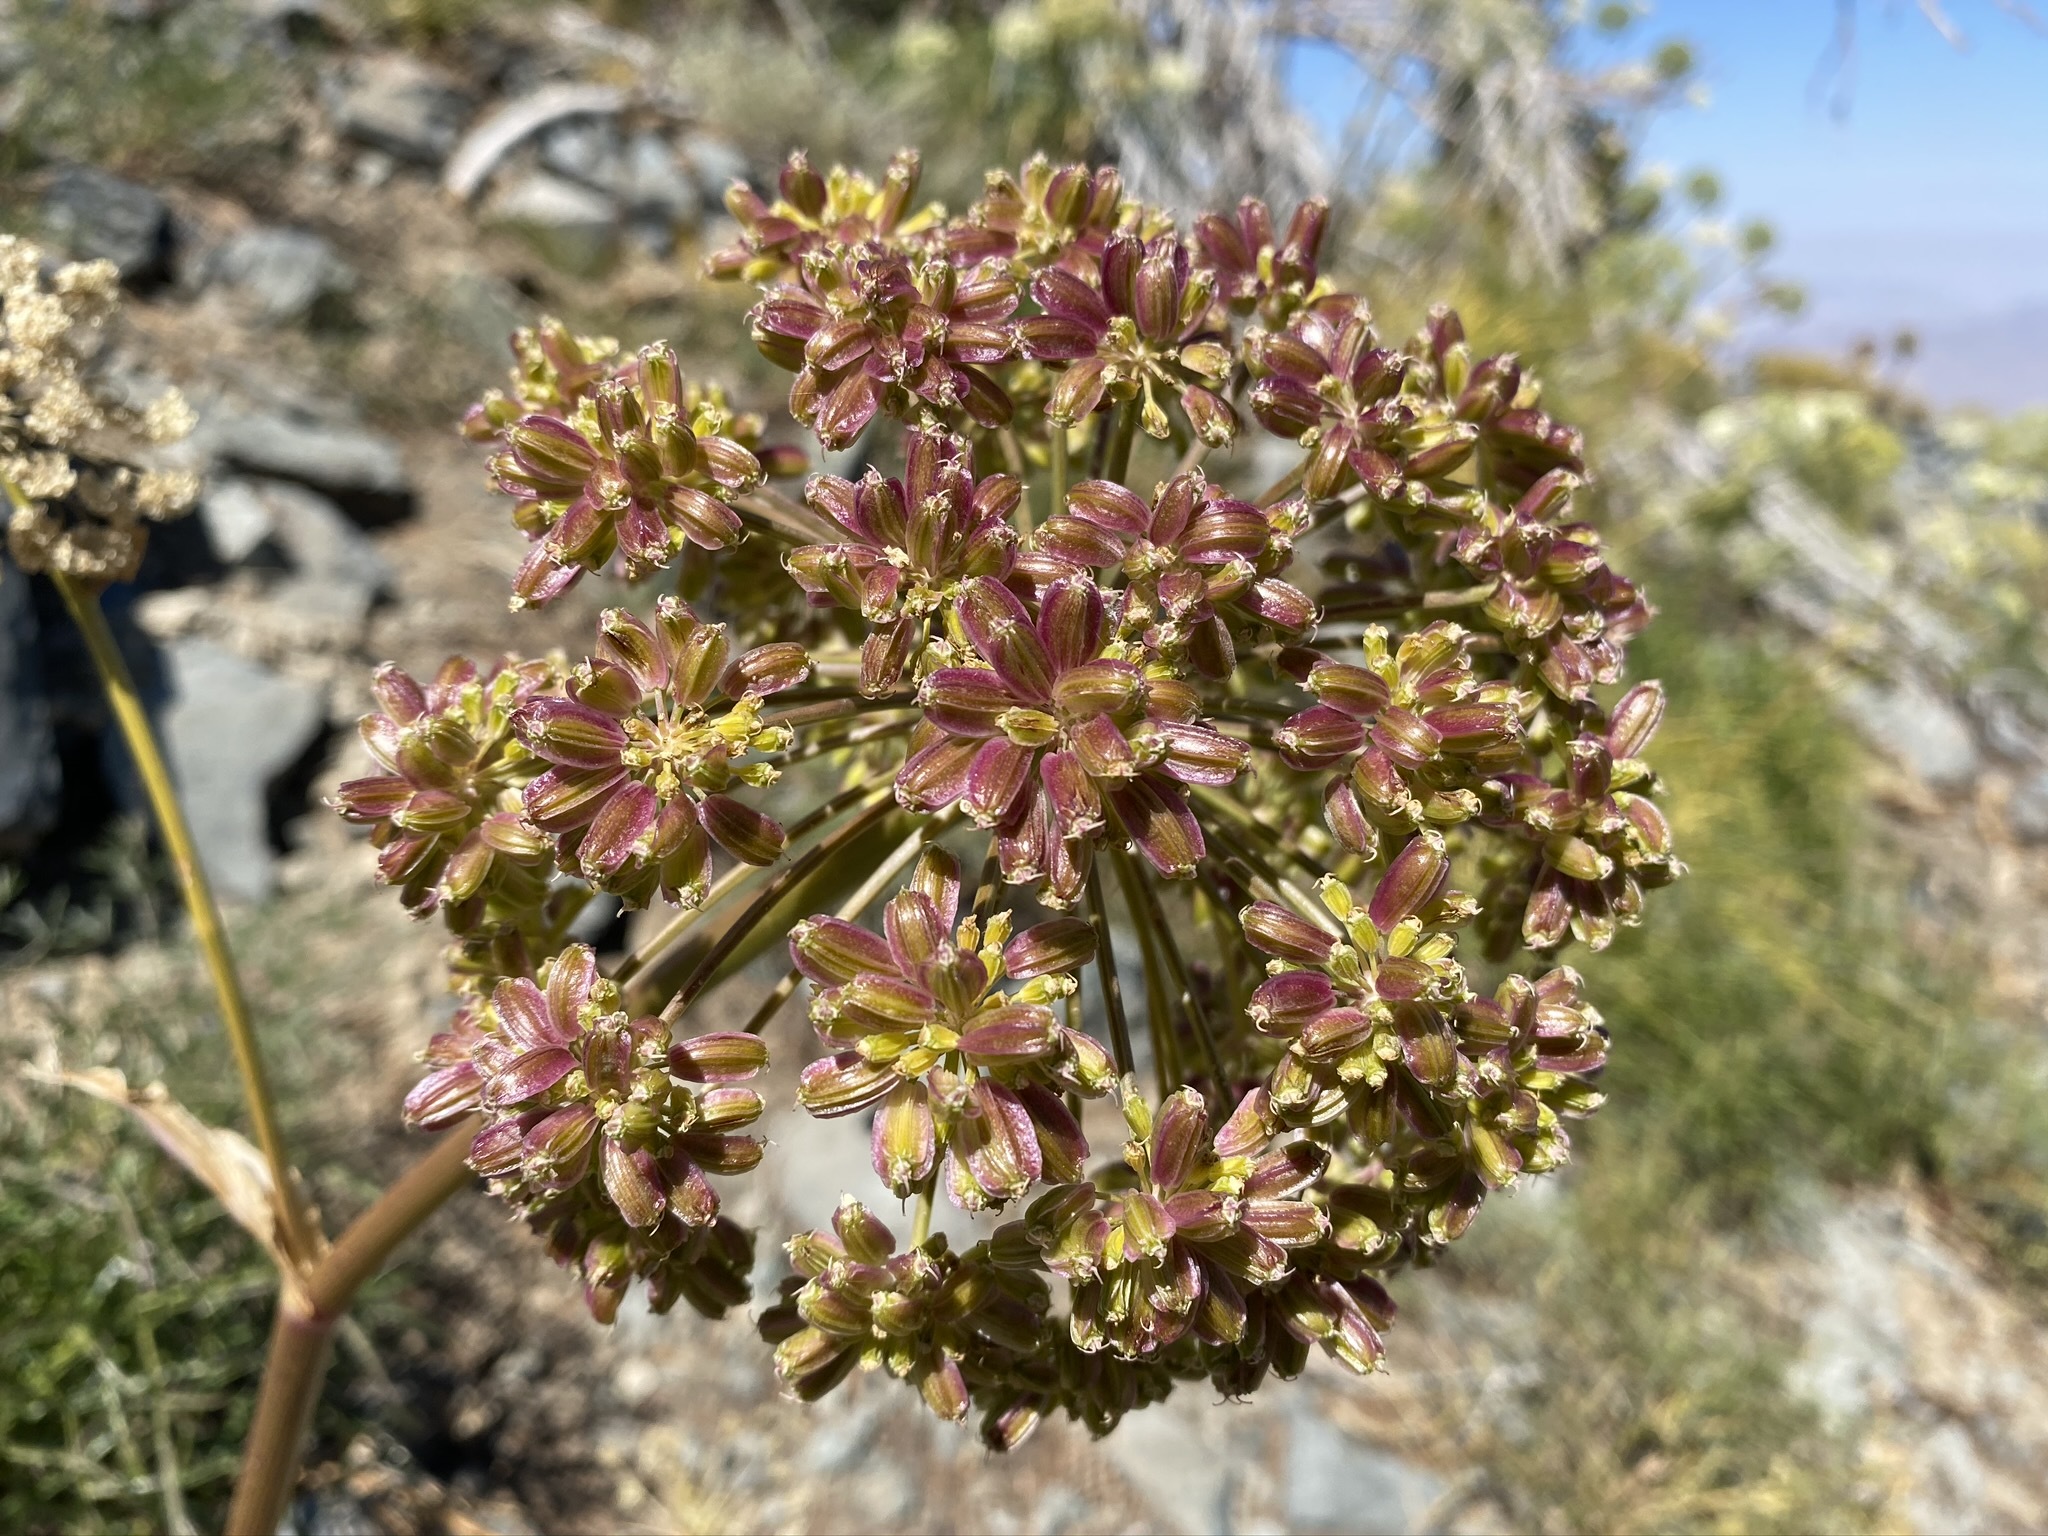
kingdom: Plantae
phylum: Tracheophyta
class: Magnoliopsida
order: Apiales
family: Apiaceae
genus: Angelica
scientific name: Angelica lineariloba
